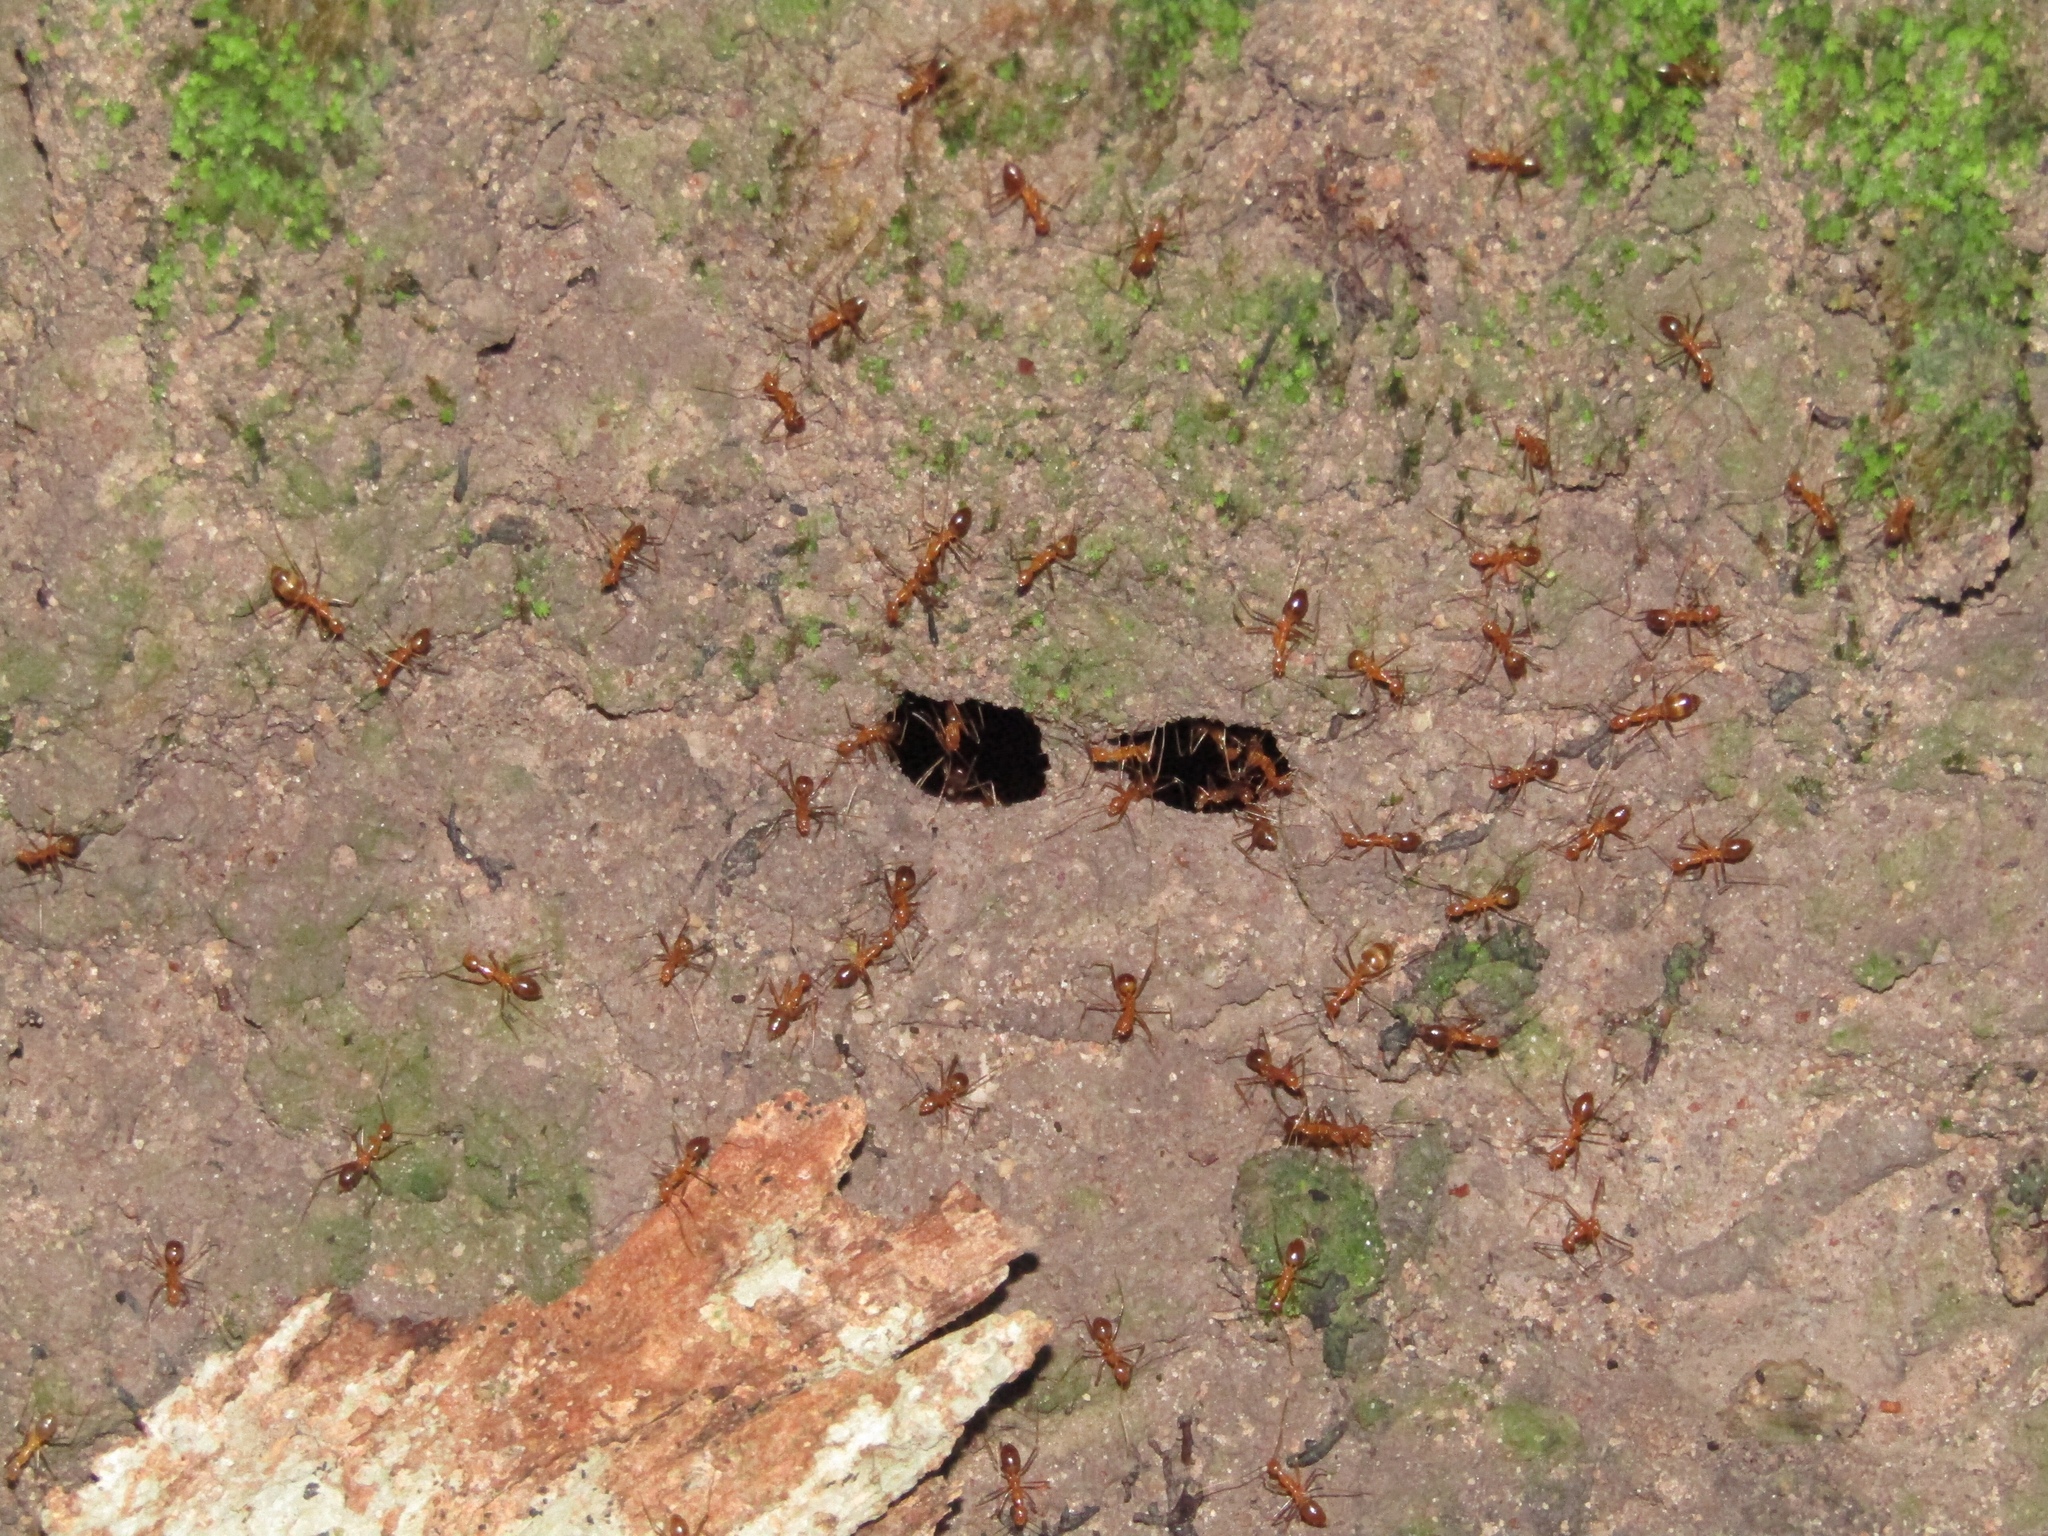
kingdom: Animalia
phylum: Arthropoda
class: Insecta
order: Hymenoptera
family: Formicidae
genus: Anoplolepis
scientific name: Anoplolepis gracilipes
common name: Ant
